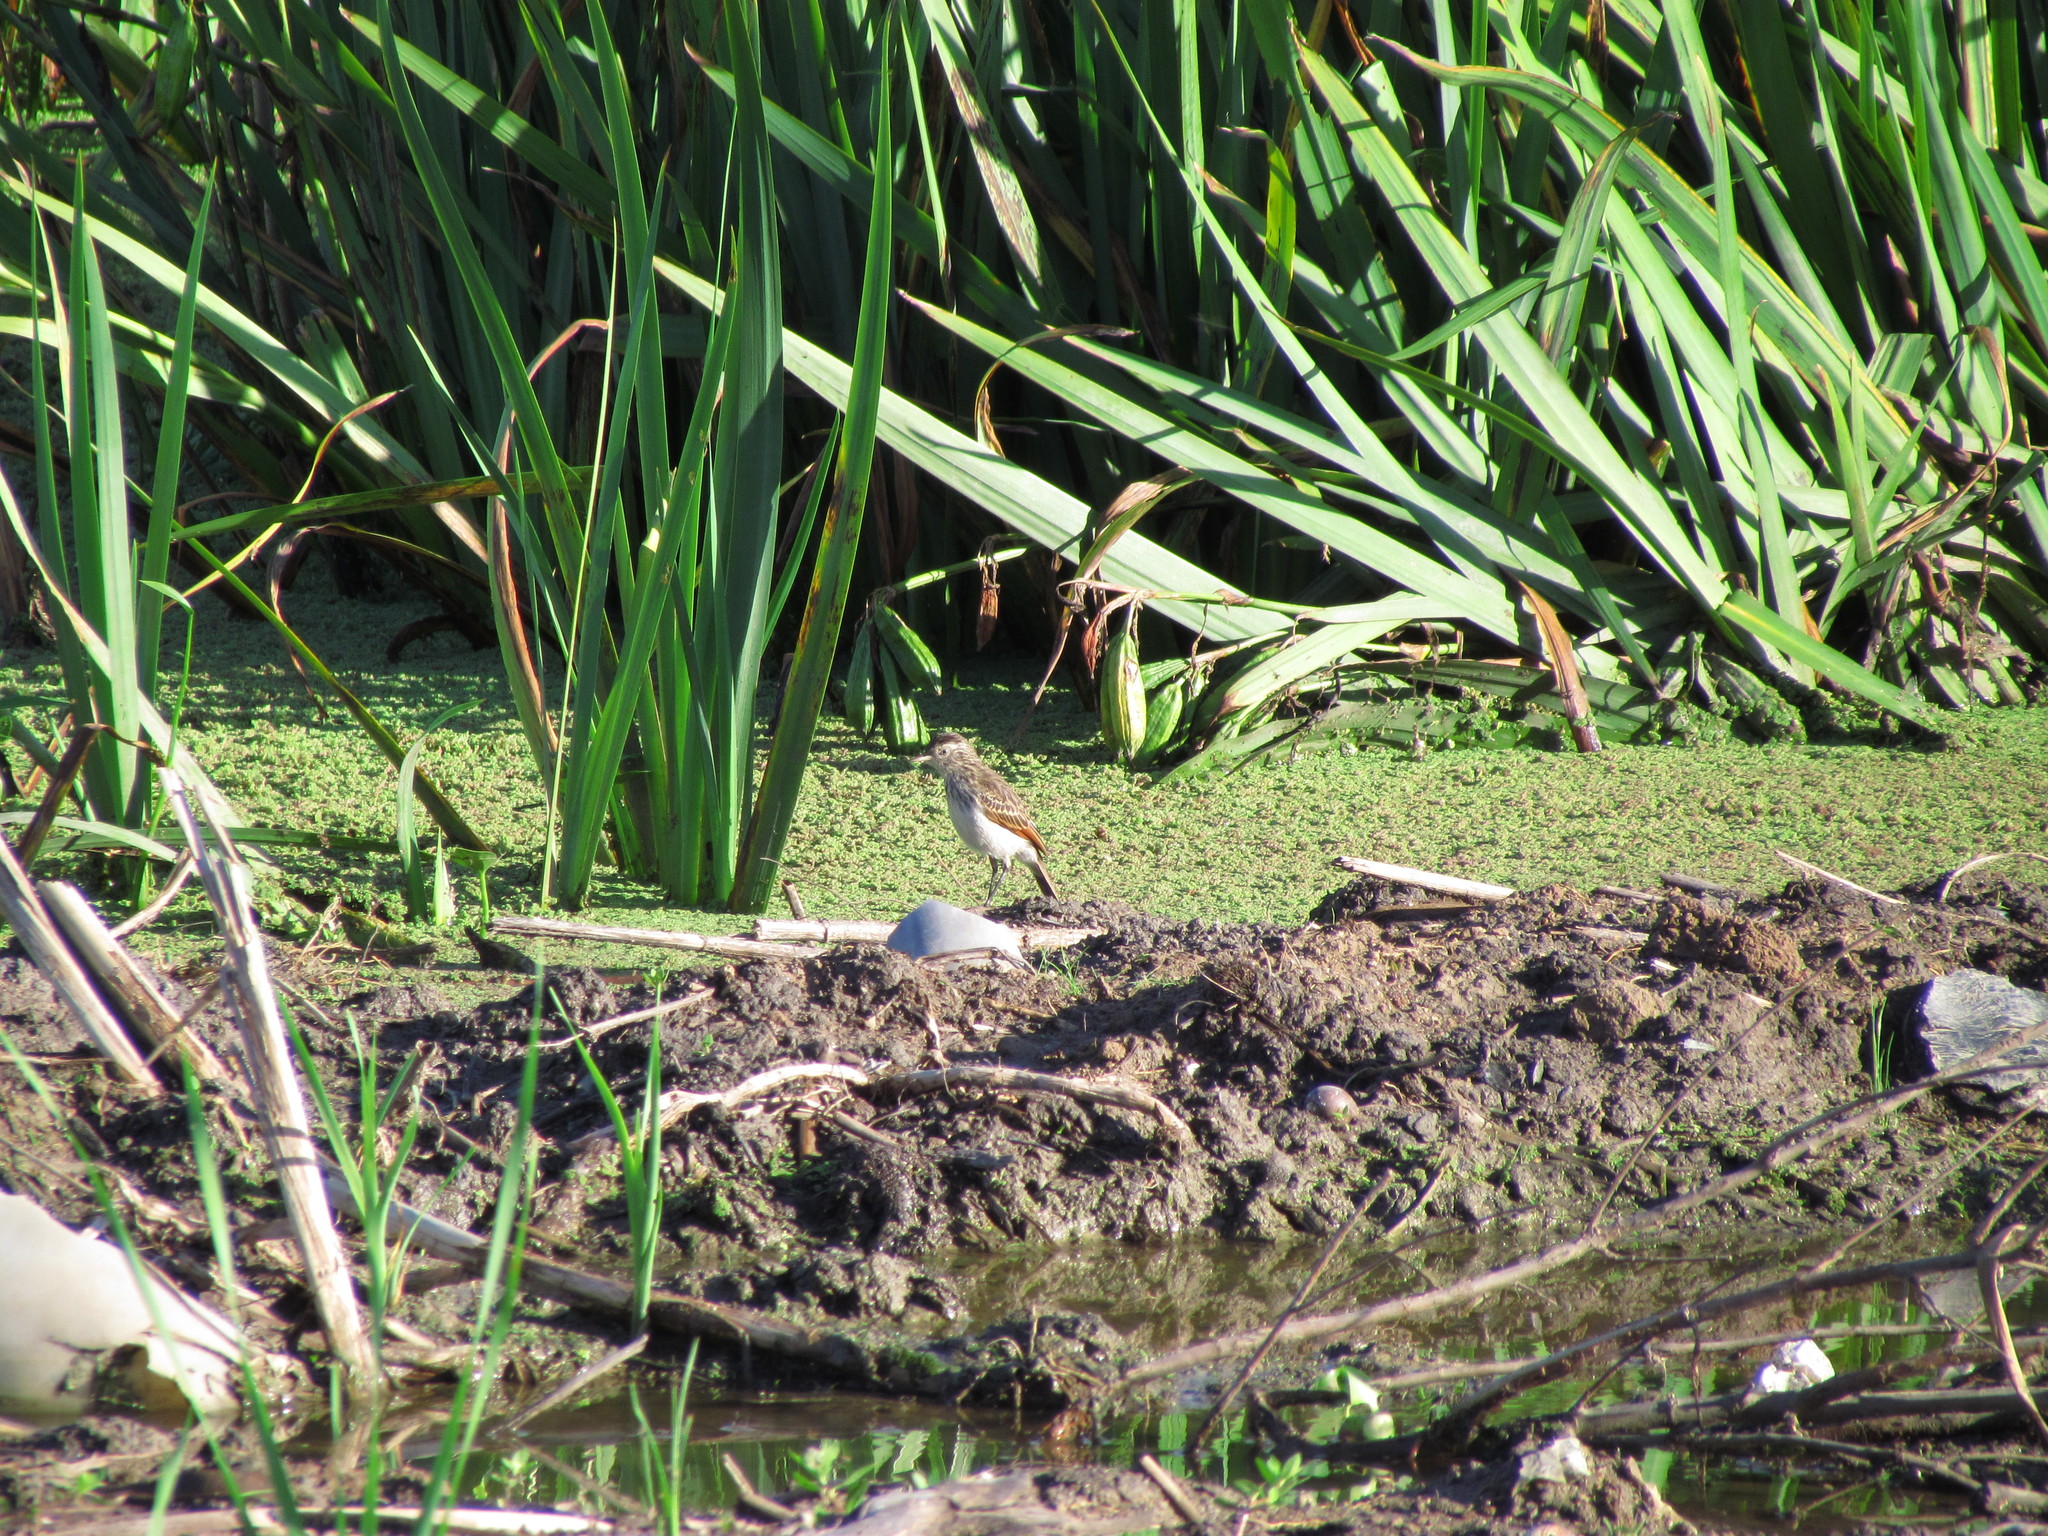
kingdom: Animalia
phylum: Chordata
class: Aves
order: Passeriformes
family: Tyrannidae
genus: Hymenops
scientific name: Hymenops perspicillatus
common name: Spectacled tyrant
